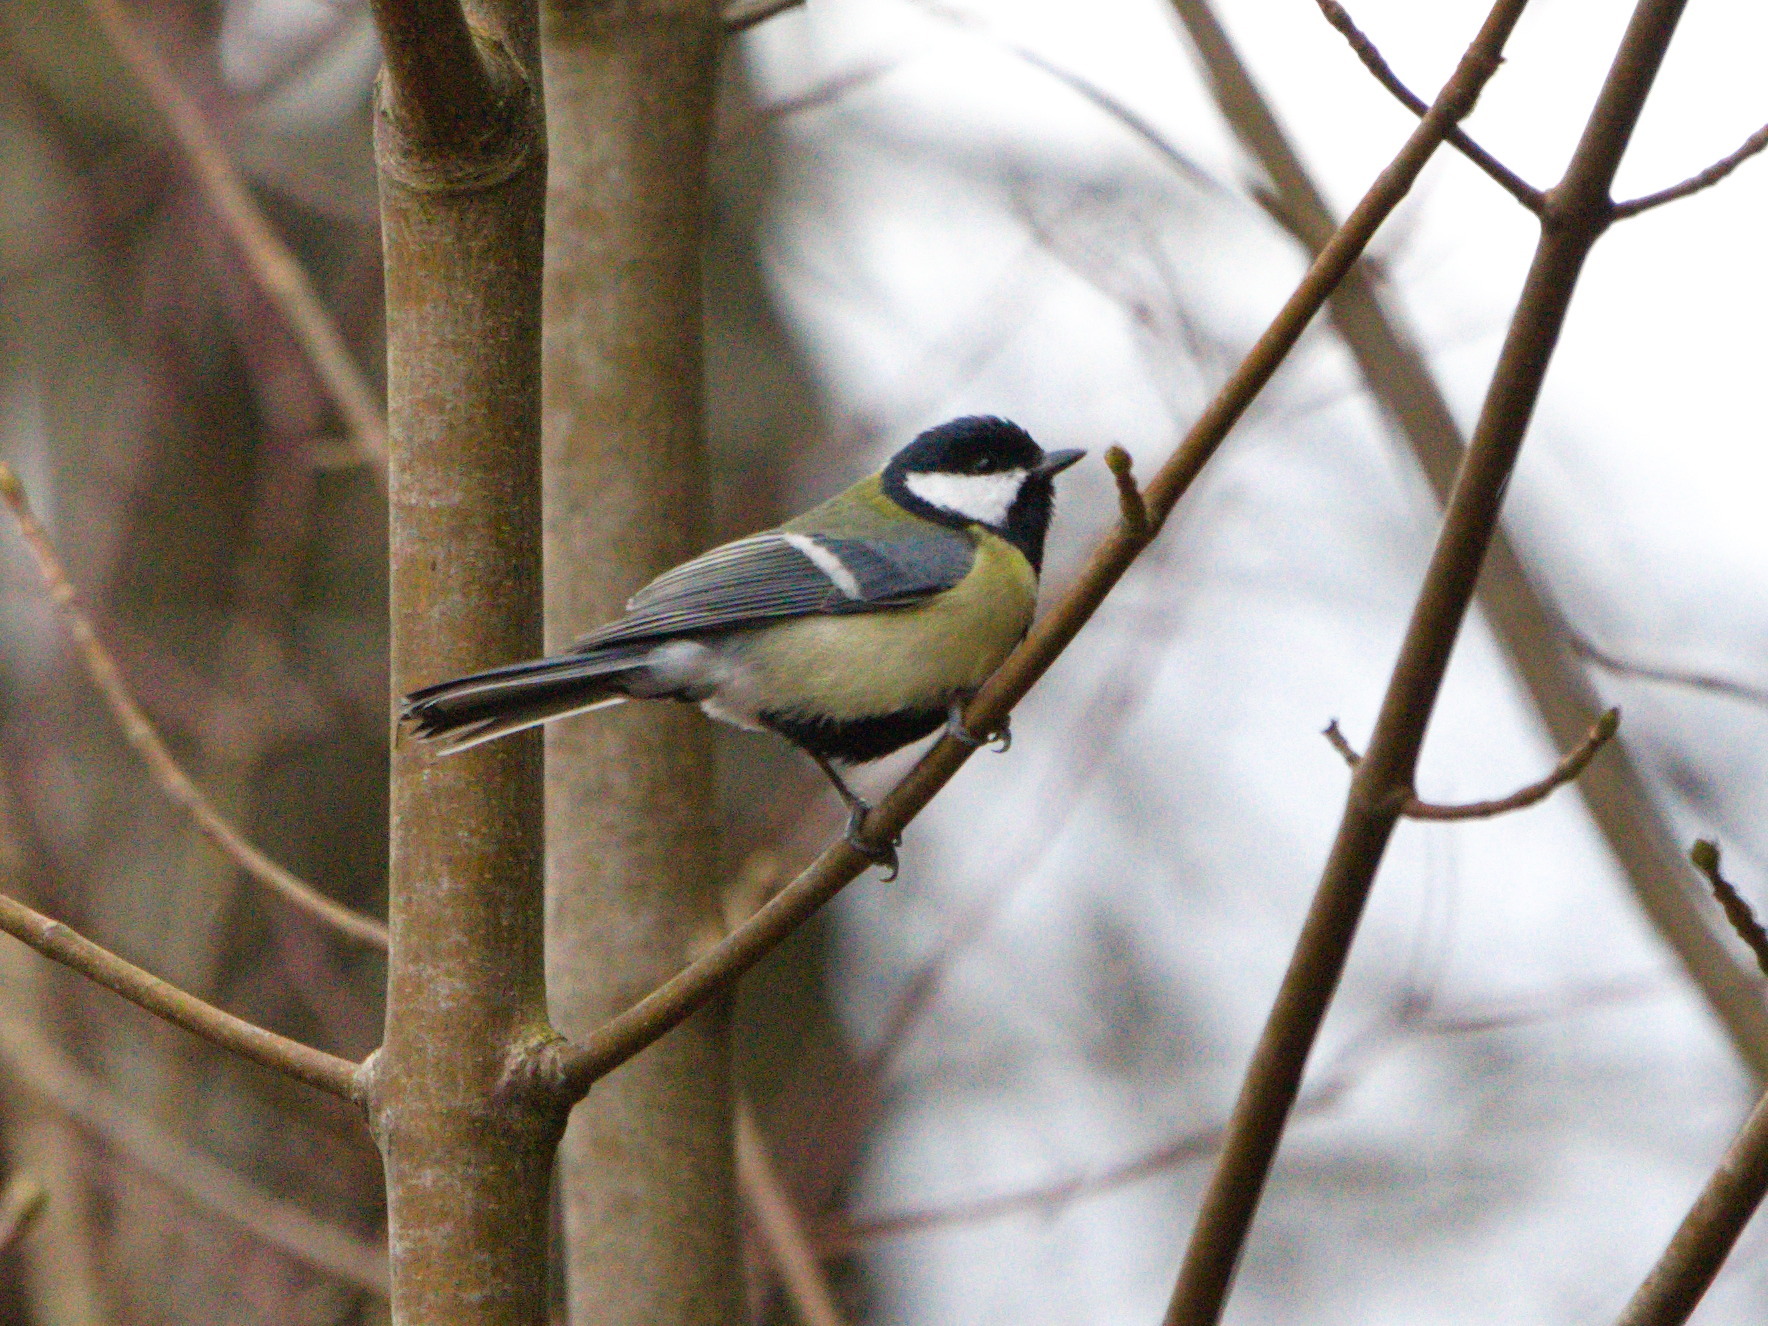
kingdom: Animalia
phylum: Chordata
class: Aves
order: Passeriformes
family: Paridae
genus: Parus
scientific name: Parus major
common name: Great tit
